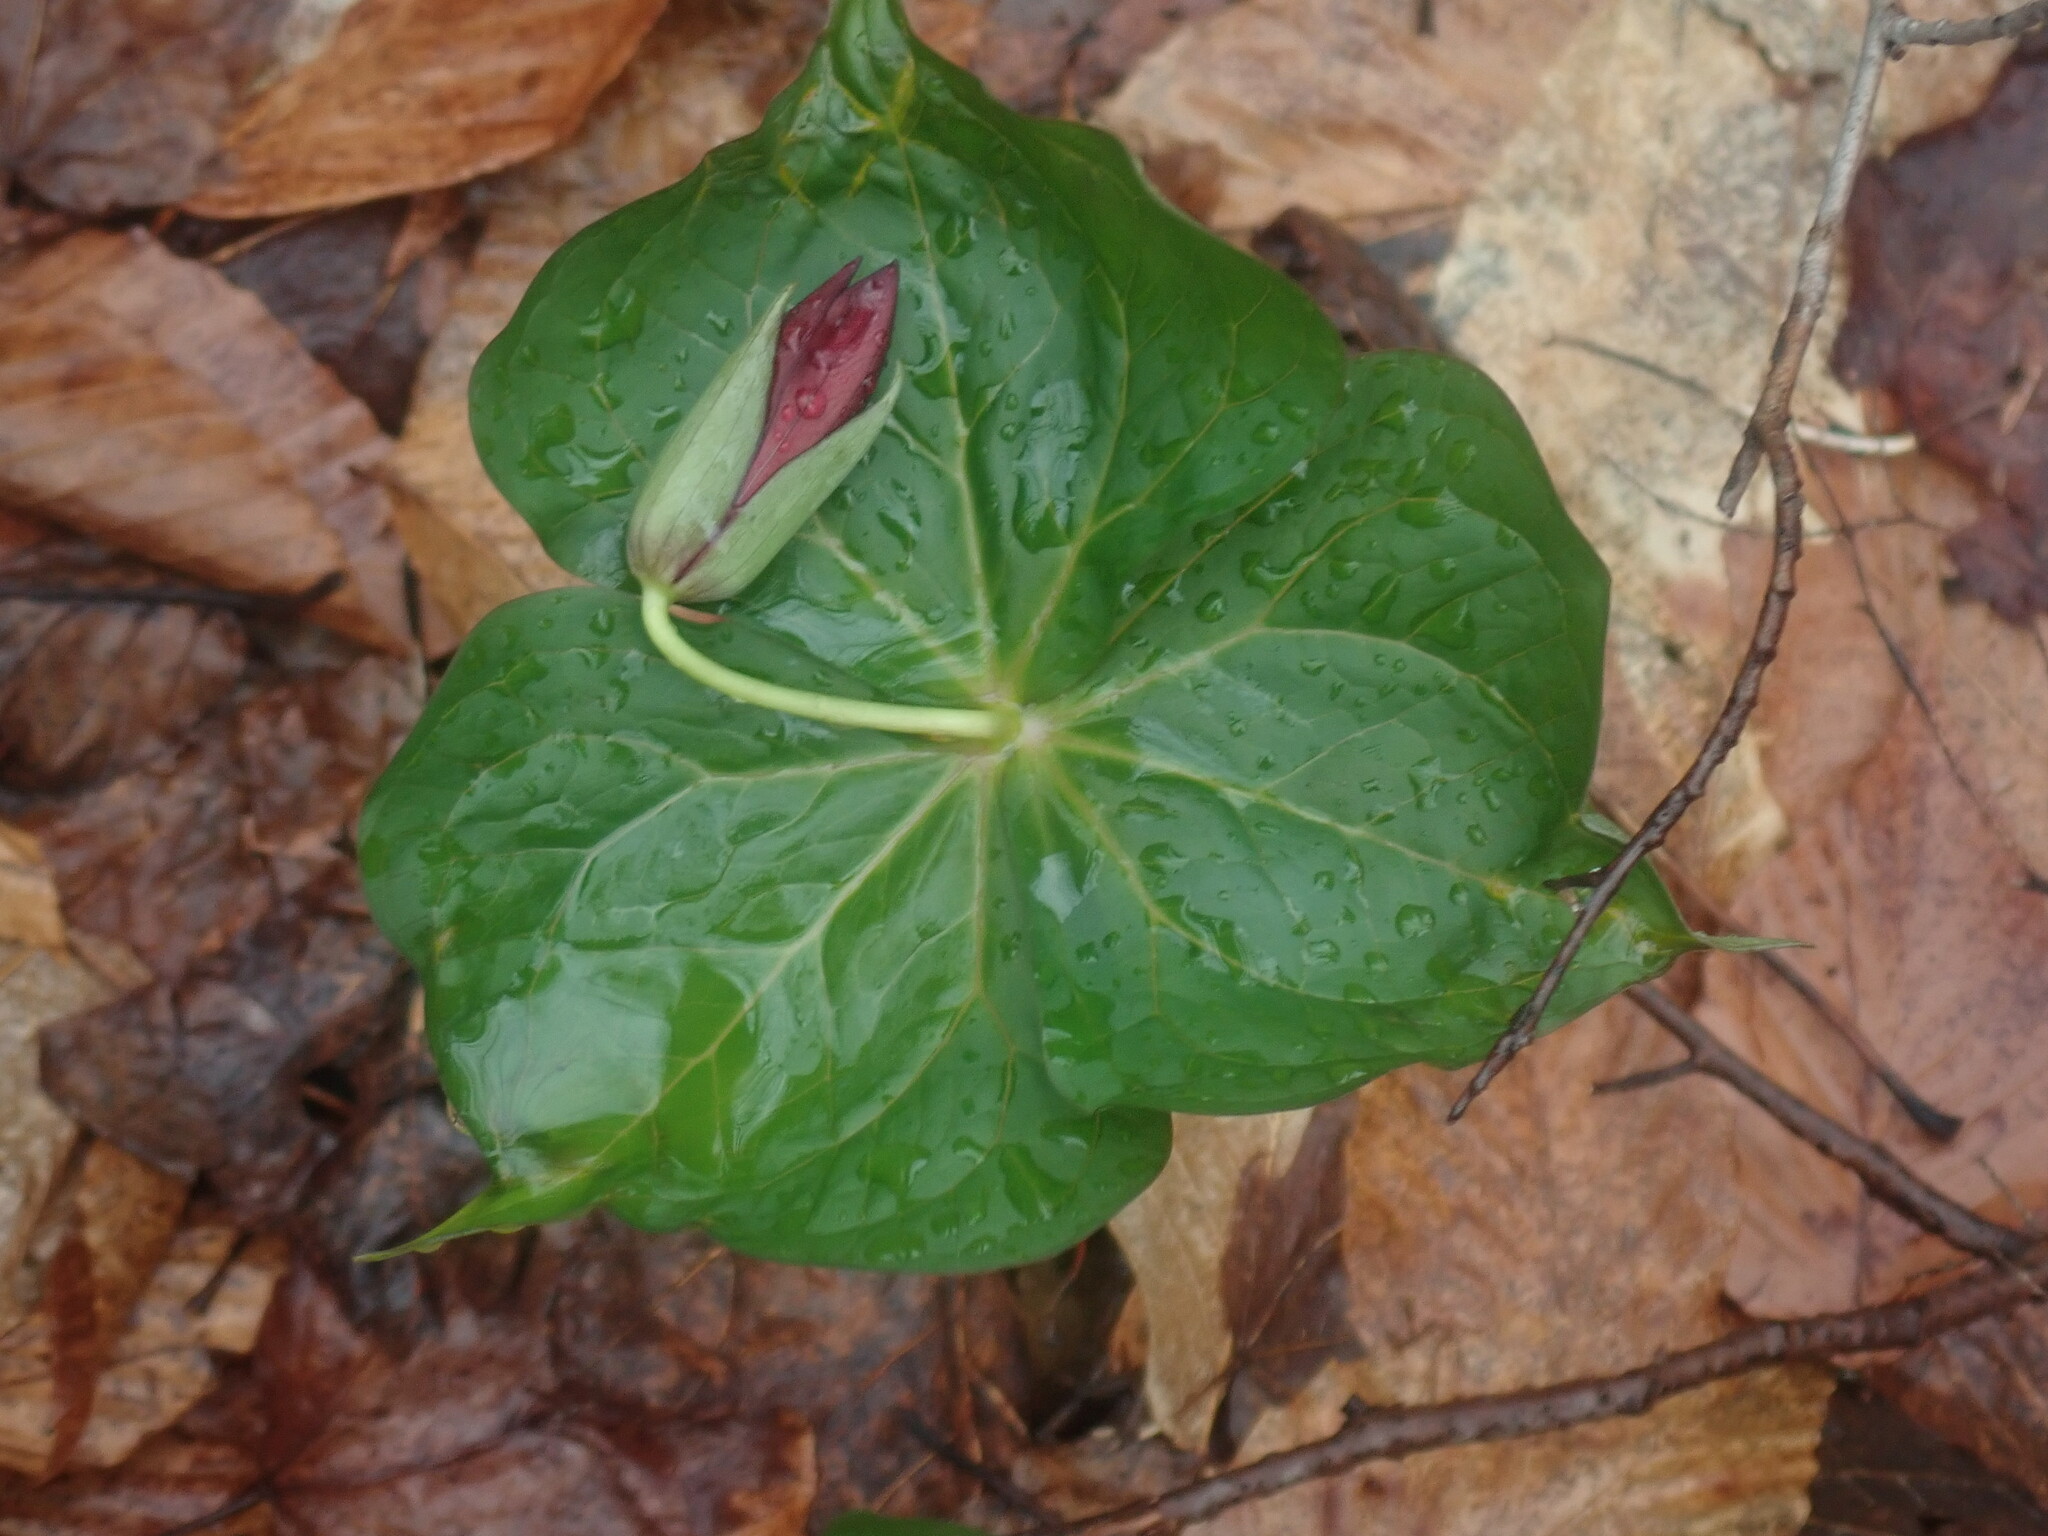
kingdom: Plantae
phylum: Tracheophyta
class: Liliopsida
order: Liliales
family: Melanthiaceae
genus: Trillium
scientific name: Trillium erectum
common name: Purple trillium
